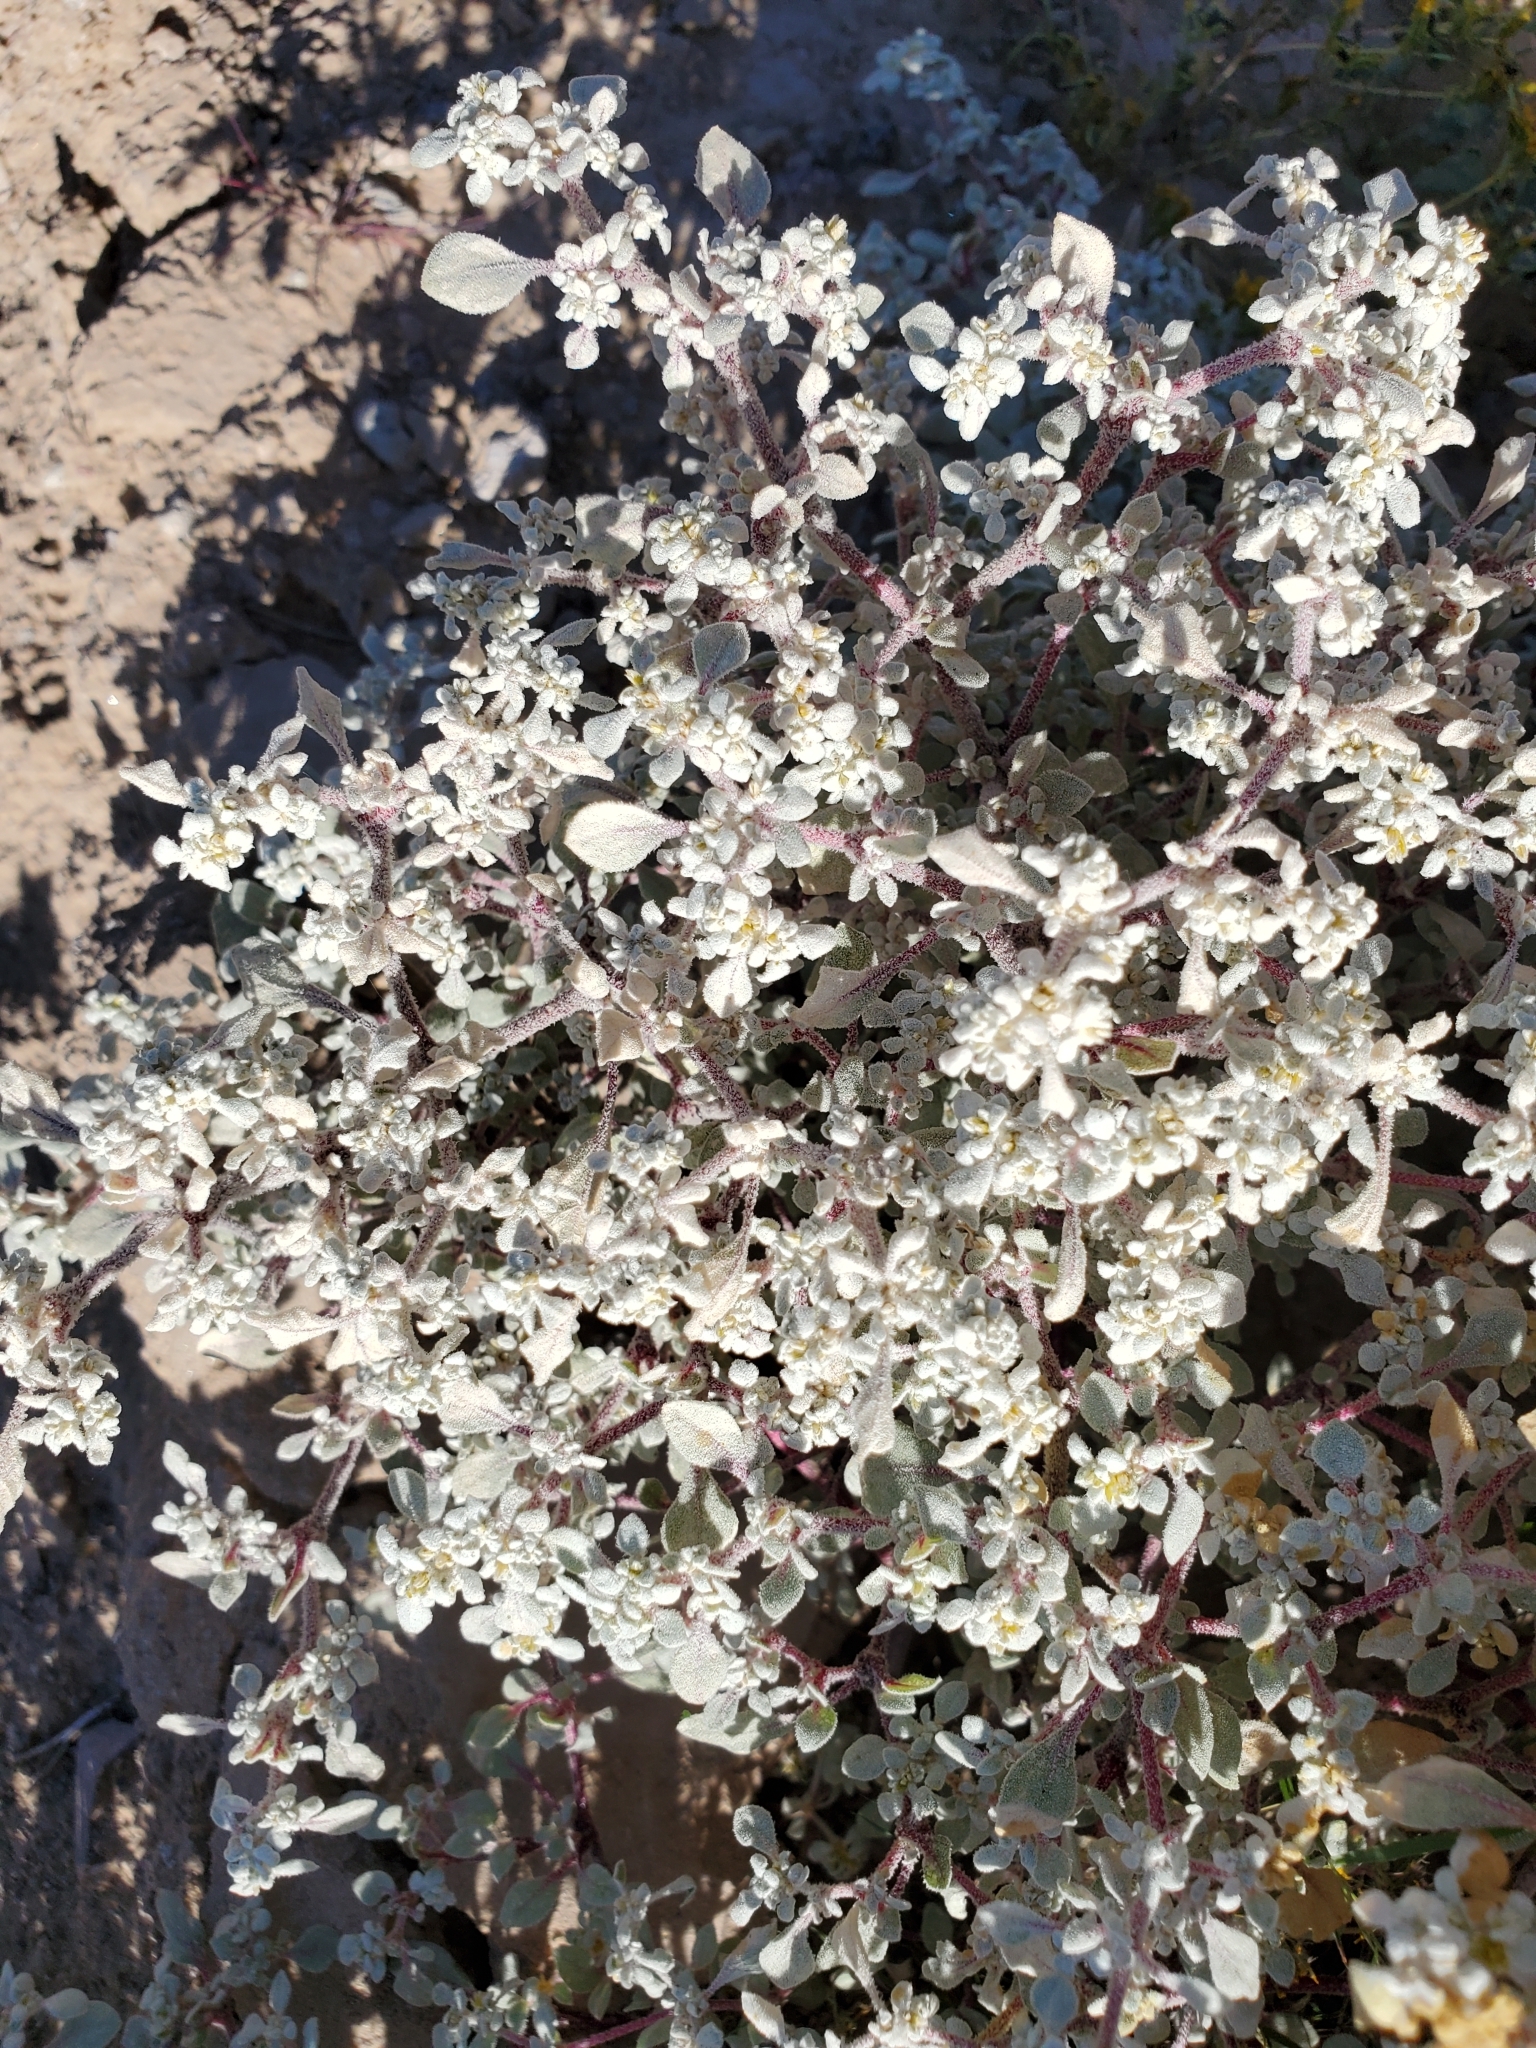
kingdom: Plantae
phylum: Tracheophyta
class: Magnoliopsida
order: Caryophyllales
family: Amaranthaceae
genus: Tidestromia
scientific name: Tidestromia lanuginosa
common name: Woolly tidestromia
